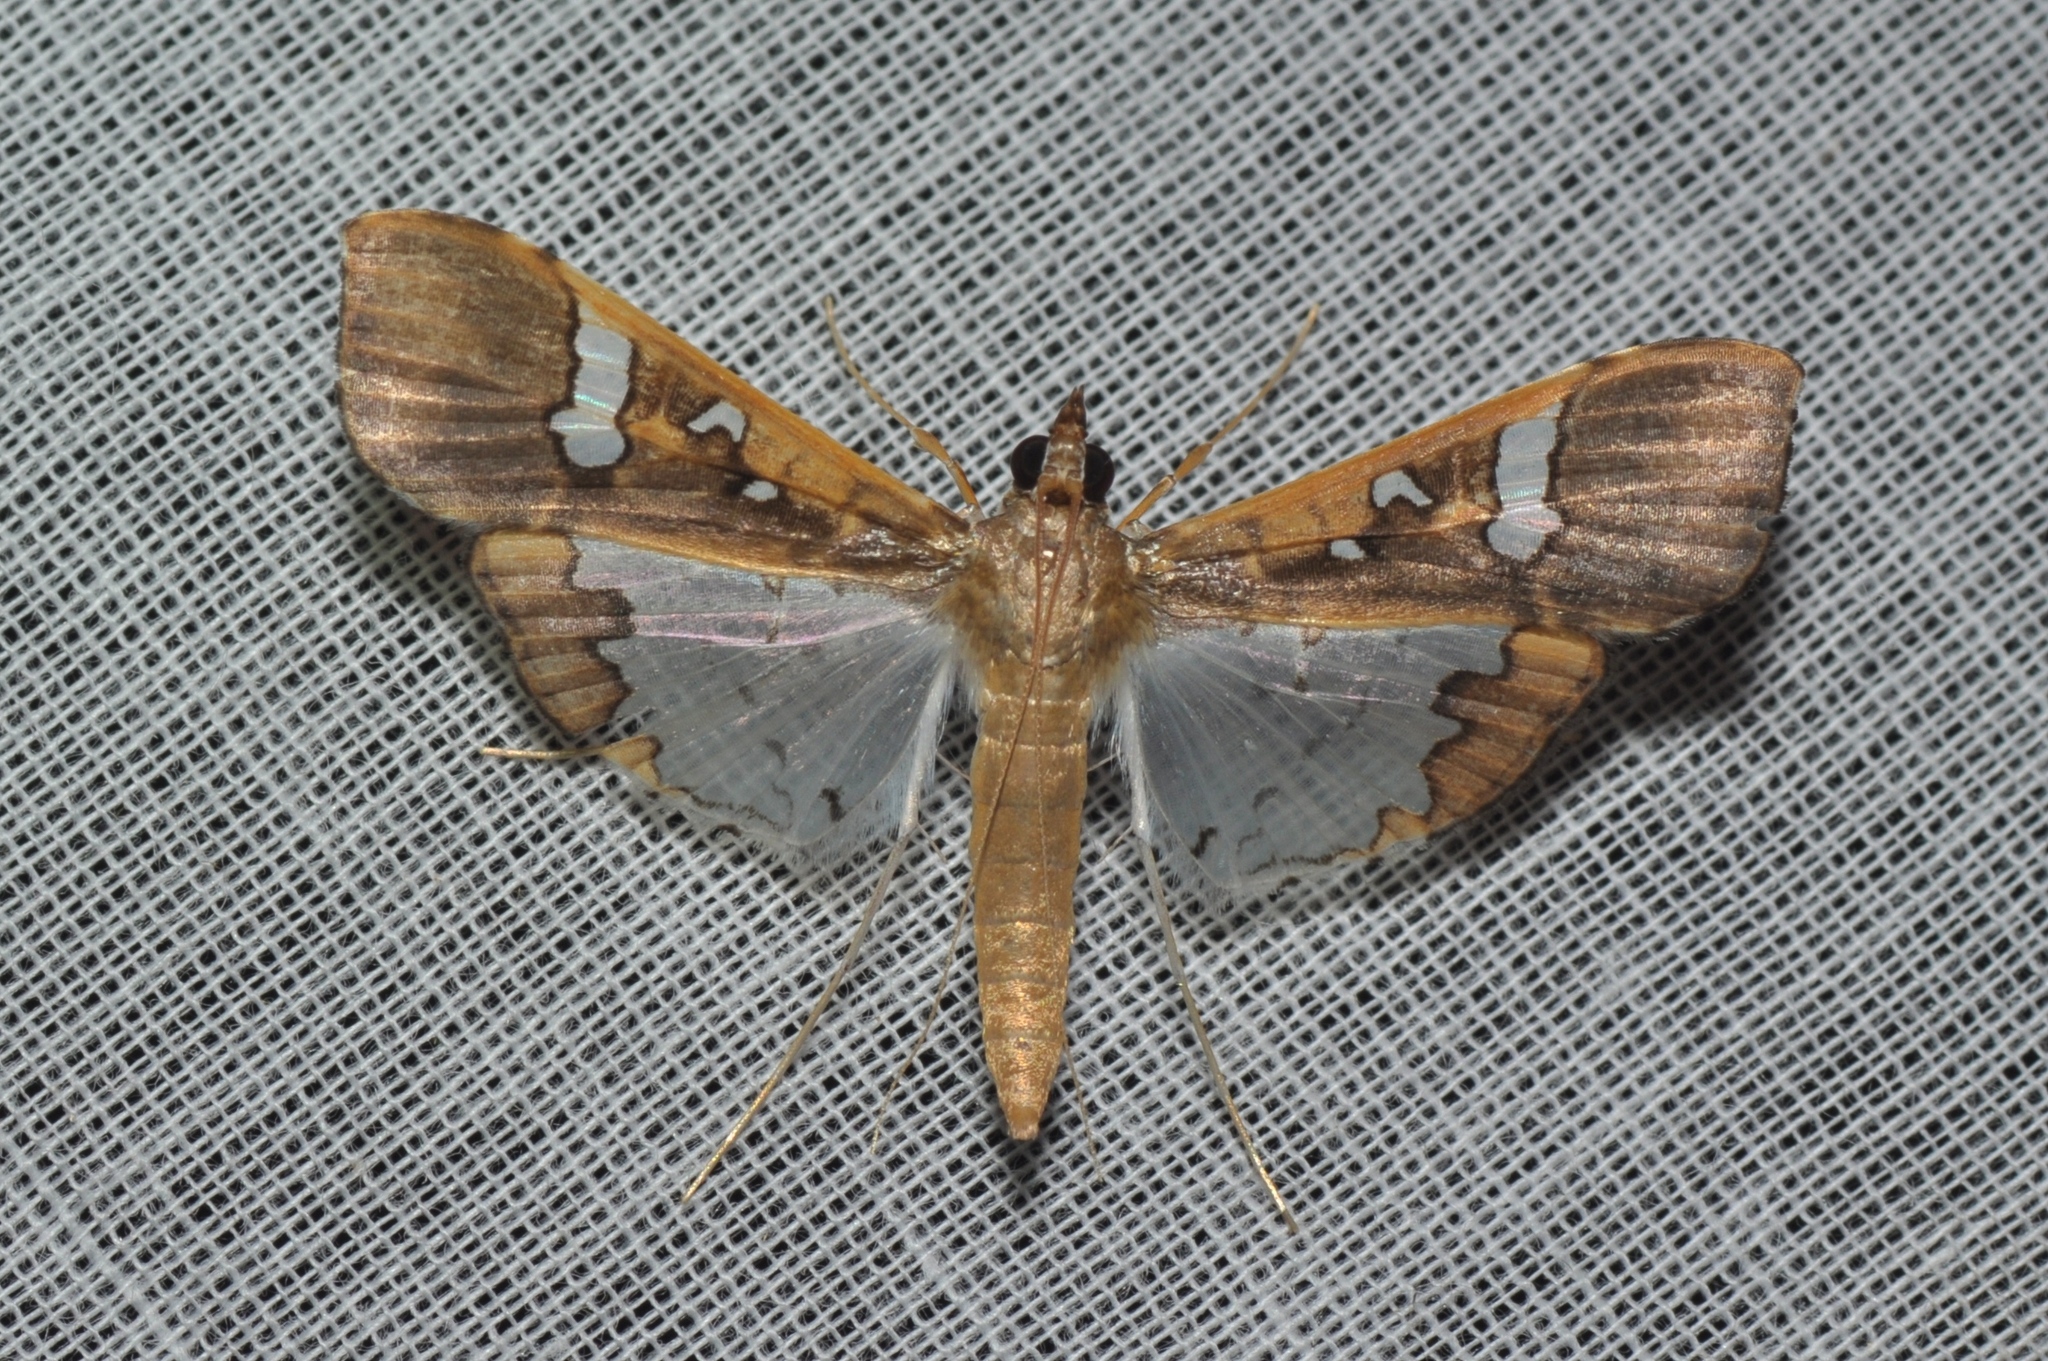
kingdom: Animalia
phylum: Arthropoda
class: Insecta
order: Lepidoptera
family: Crambidae
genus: Maruca
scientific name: Maruca vitrata
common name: Maruca pod borer
